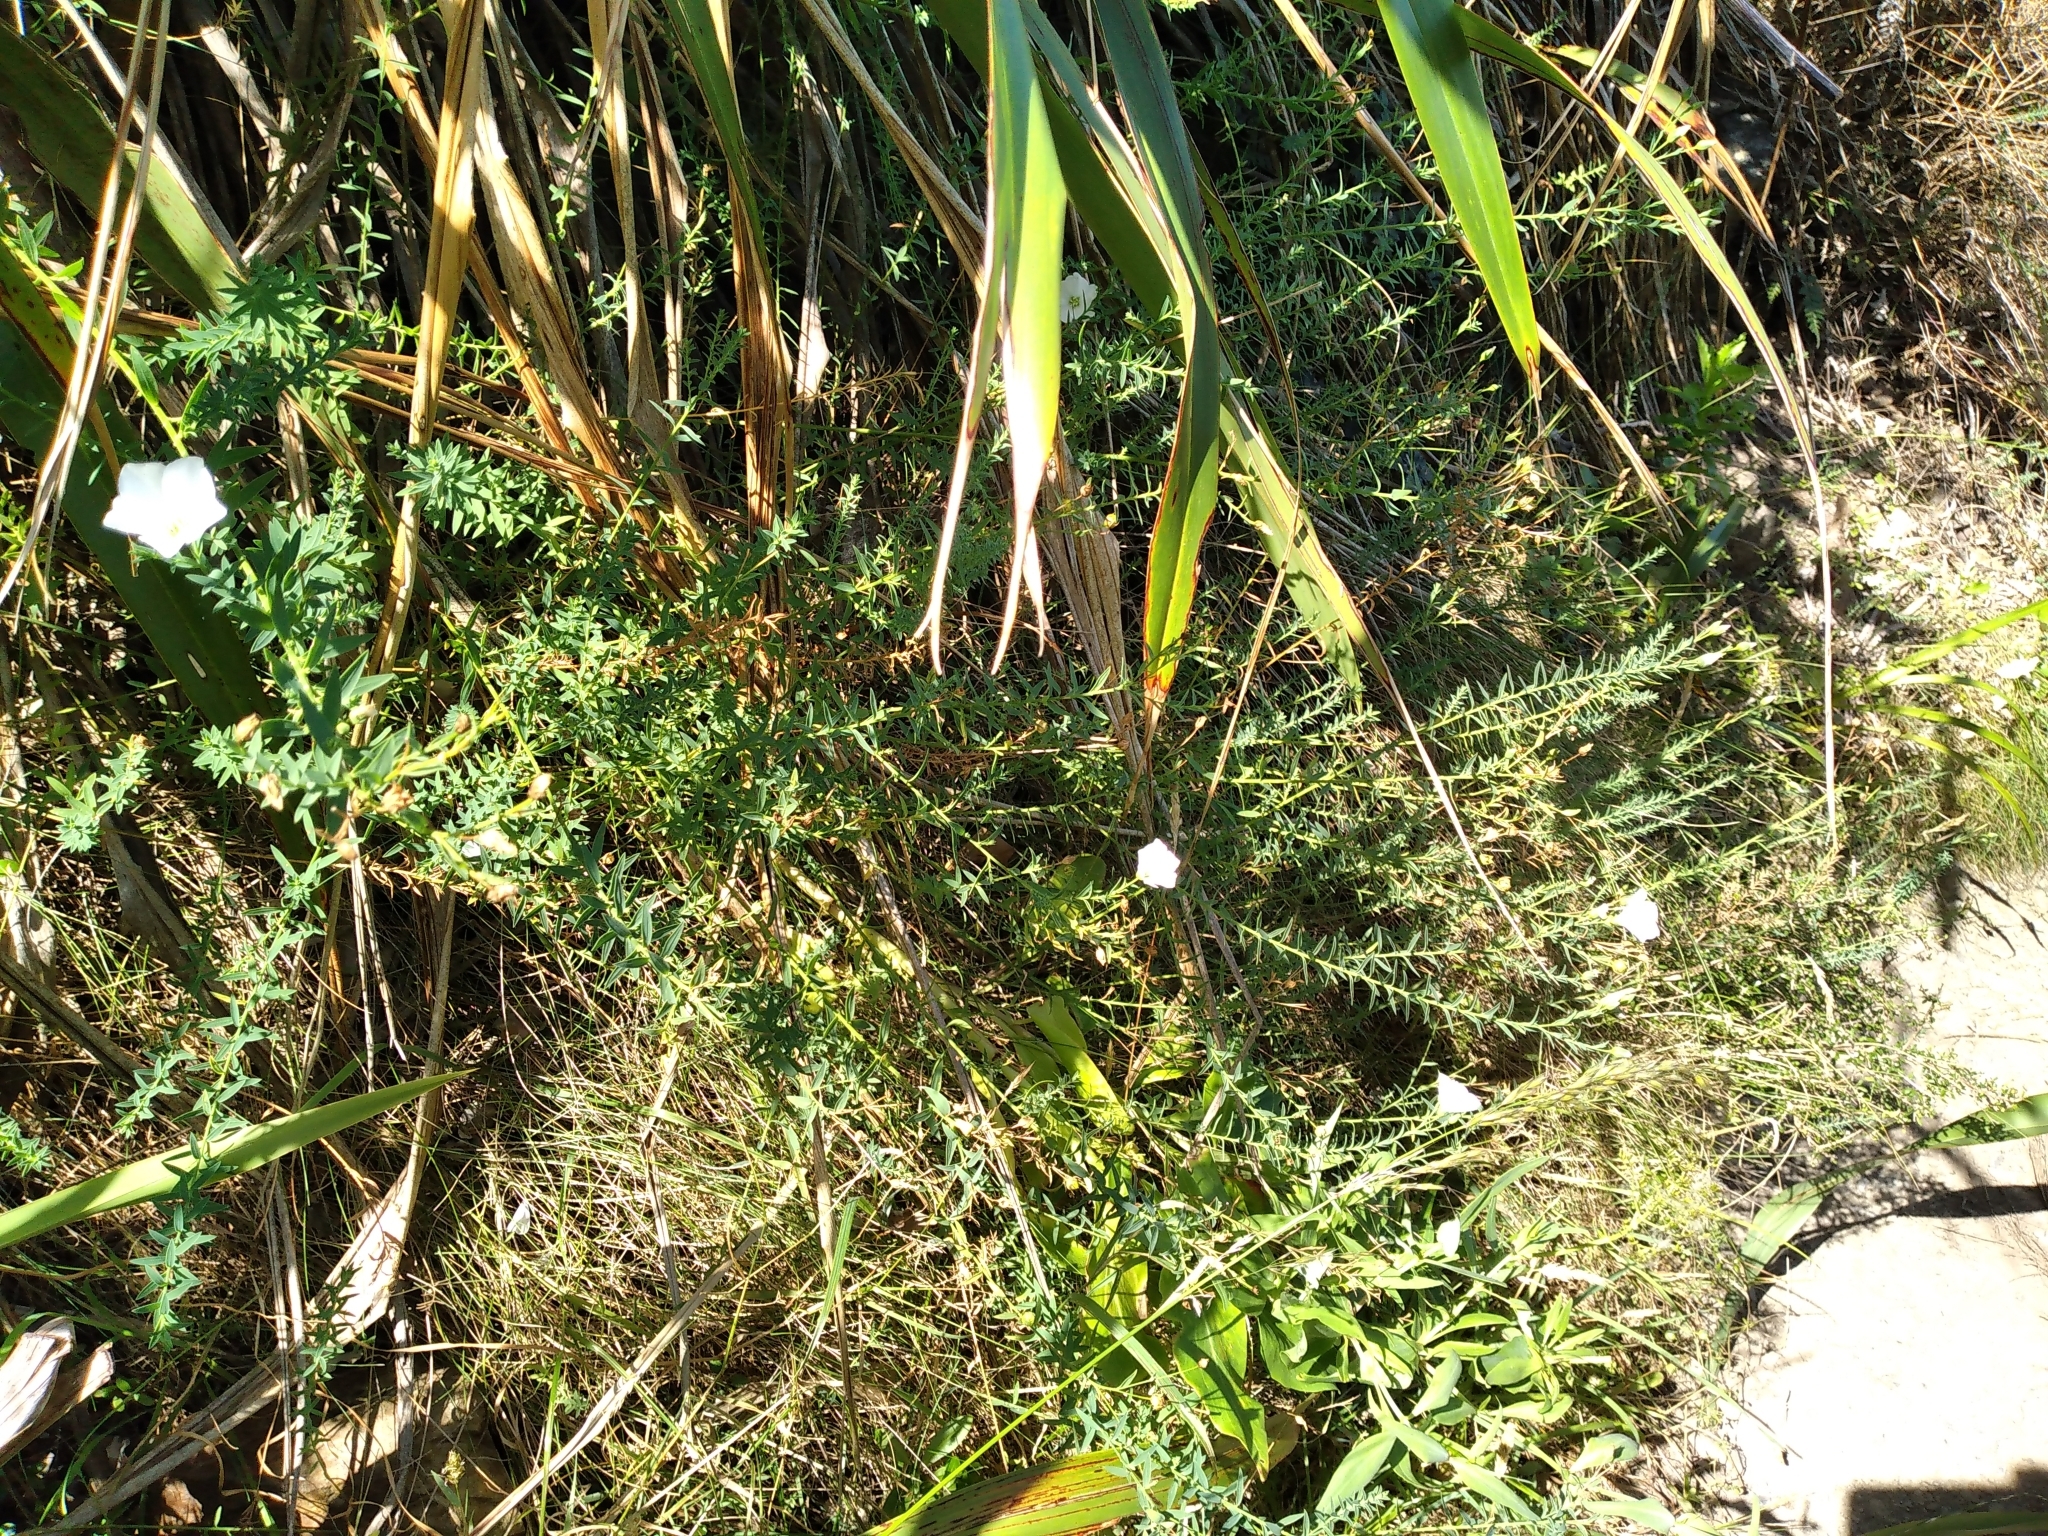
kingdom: Plantae
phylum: Tracheophyta
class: Magnoliopsida
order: Malpighiales
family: Linaceae
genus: Linum
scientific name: Linum monogynum
